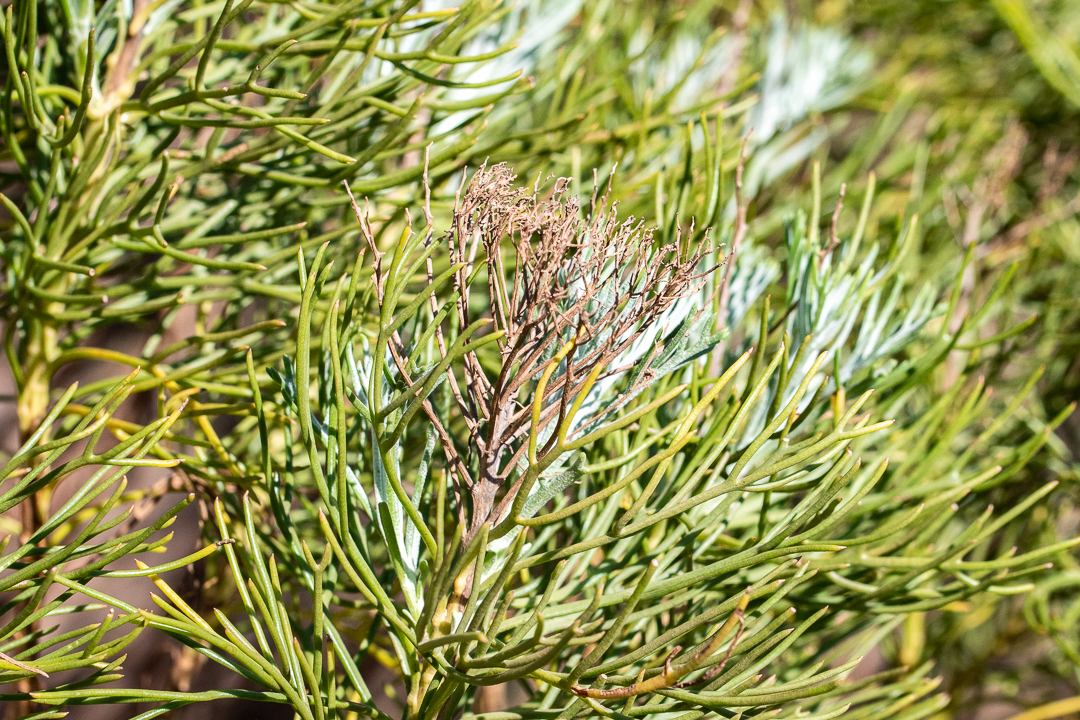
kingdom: Plantae
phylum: Tracheophyta
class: Magnoliopsida
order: Asterales
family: Asteraceae
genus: Hymenolepis
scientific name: Hymenolepis crithmifolia
